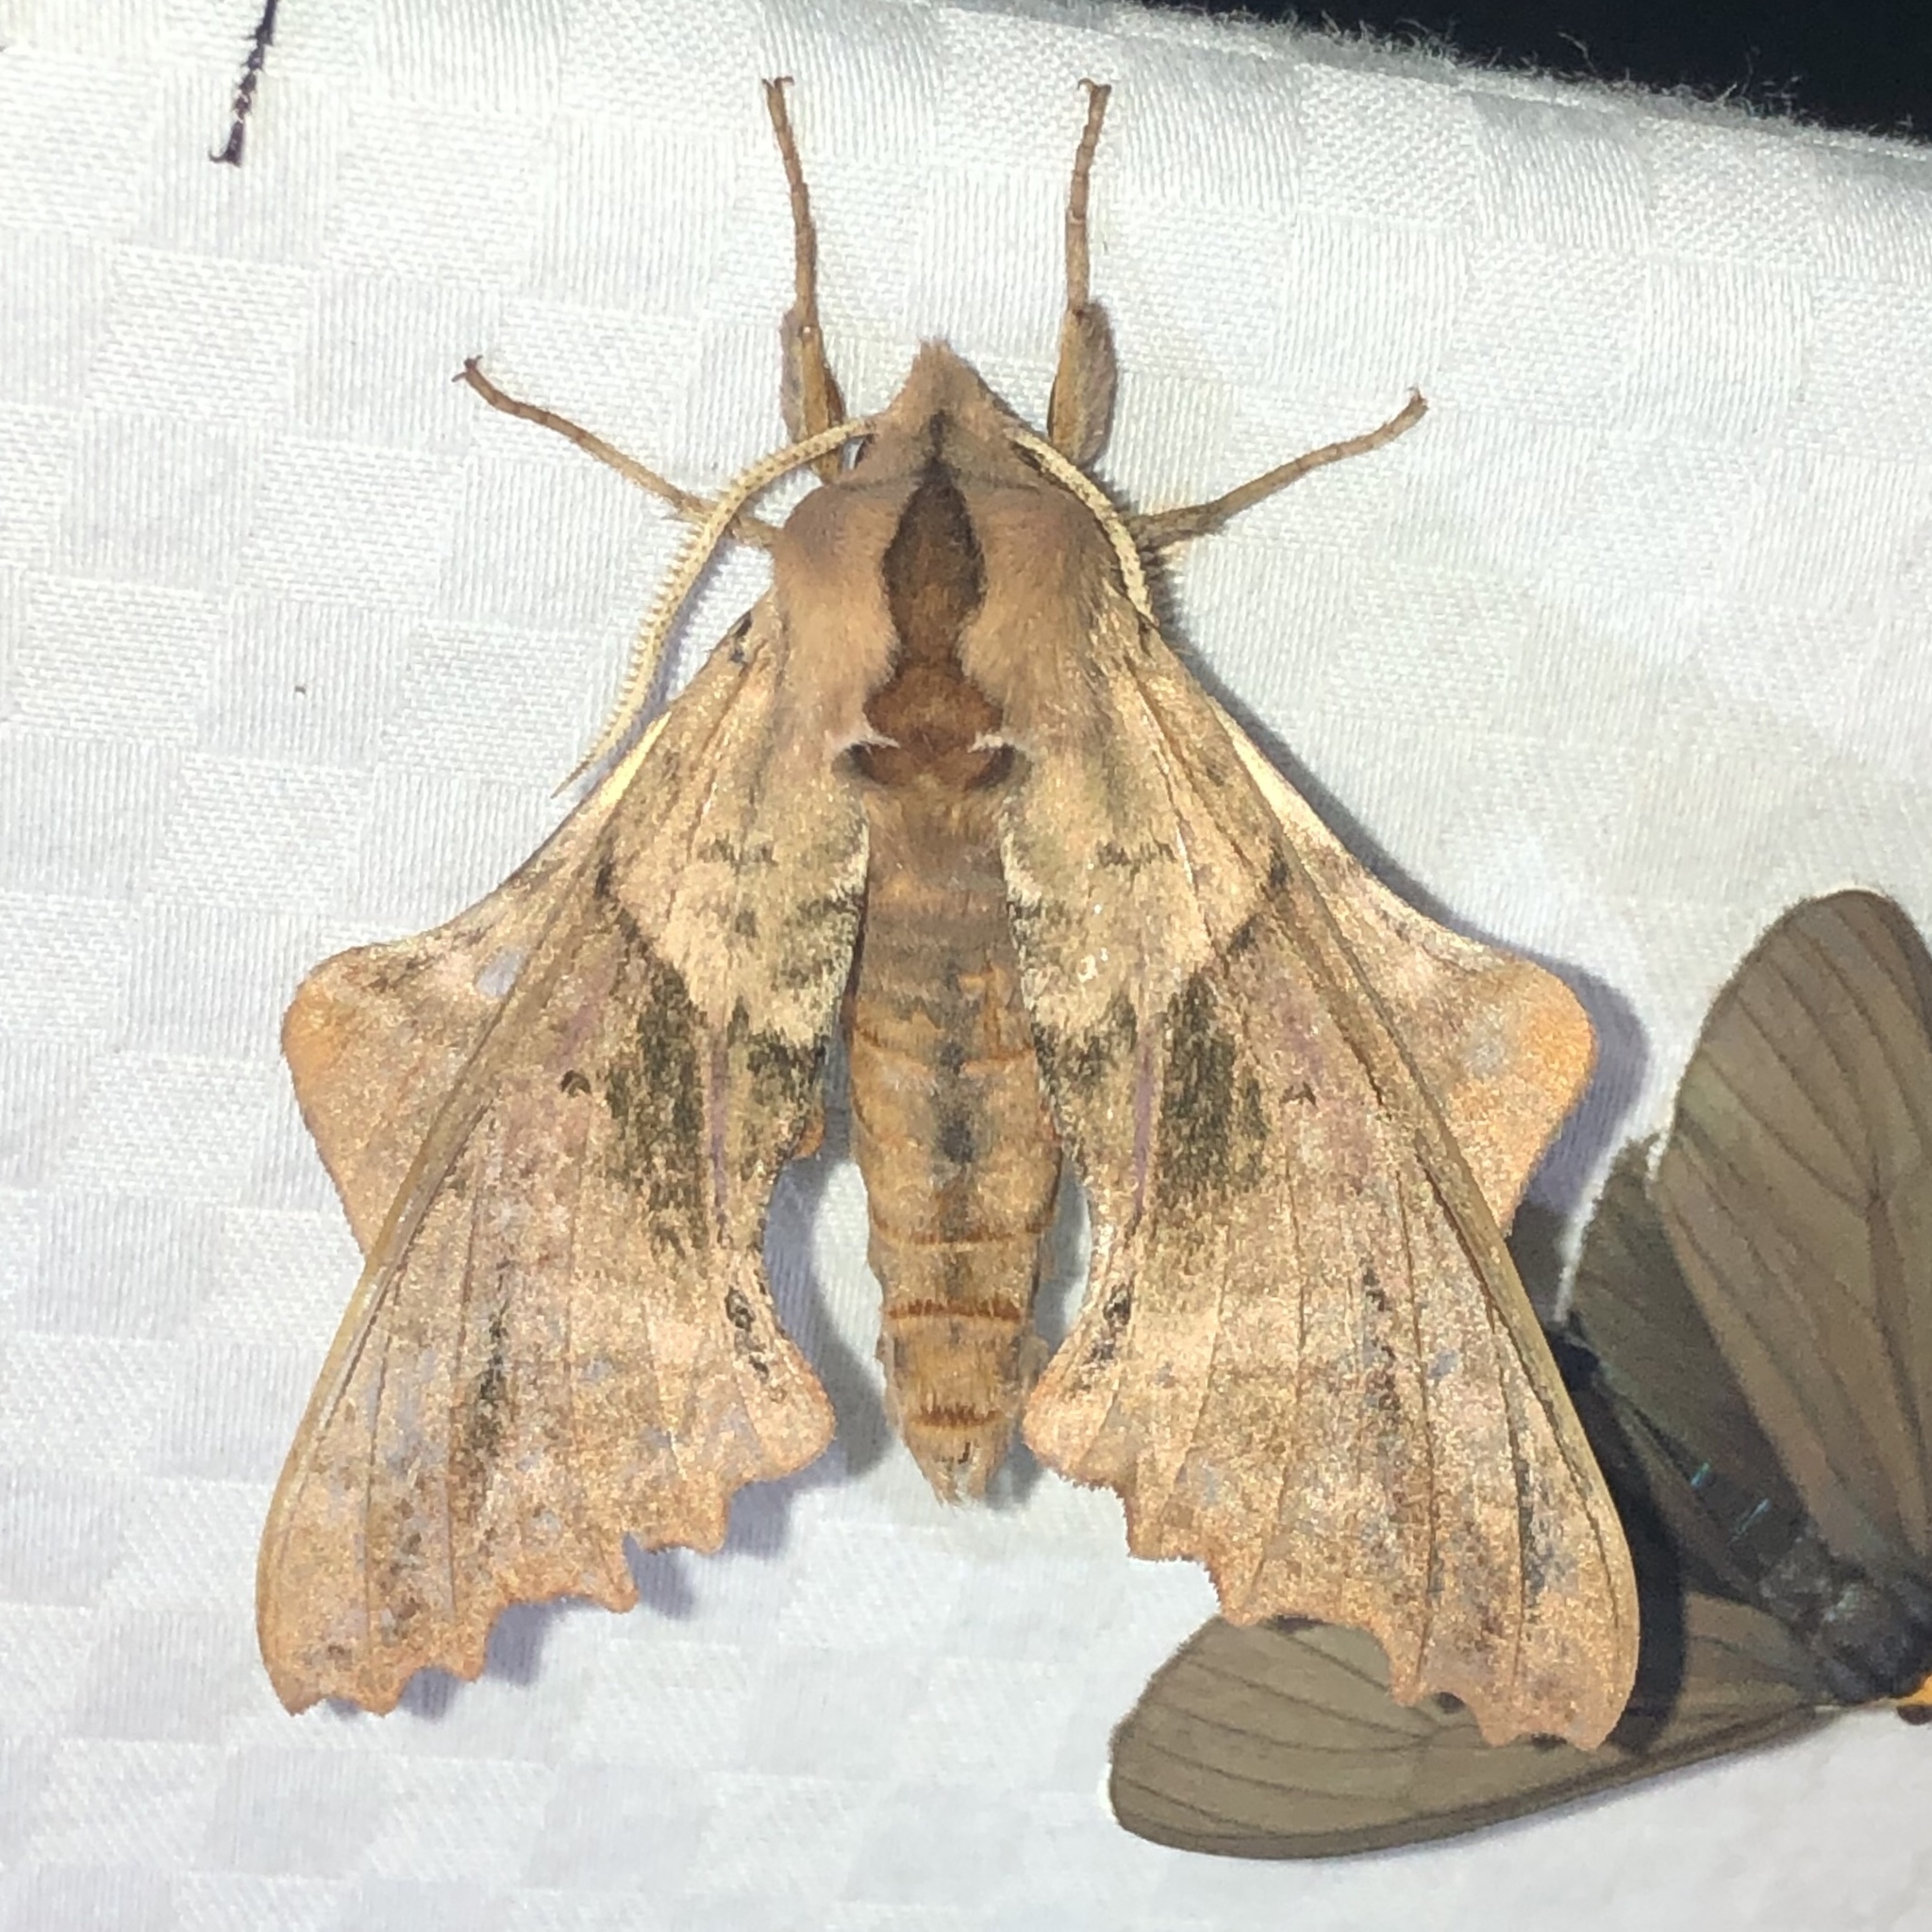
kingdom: Animalia
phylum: Arthropoda
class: Insecta
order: Lepidoptera
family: Sphingidae
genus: Paonias
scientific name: Paonias excaecata
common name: Blind-eyed sphinx
